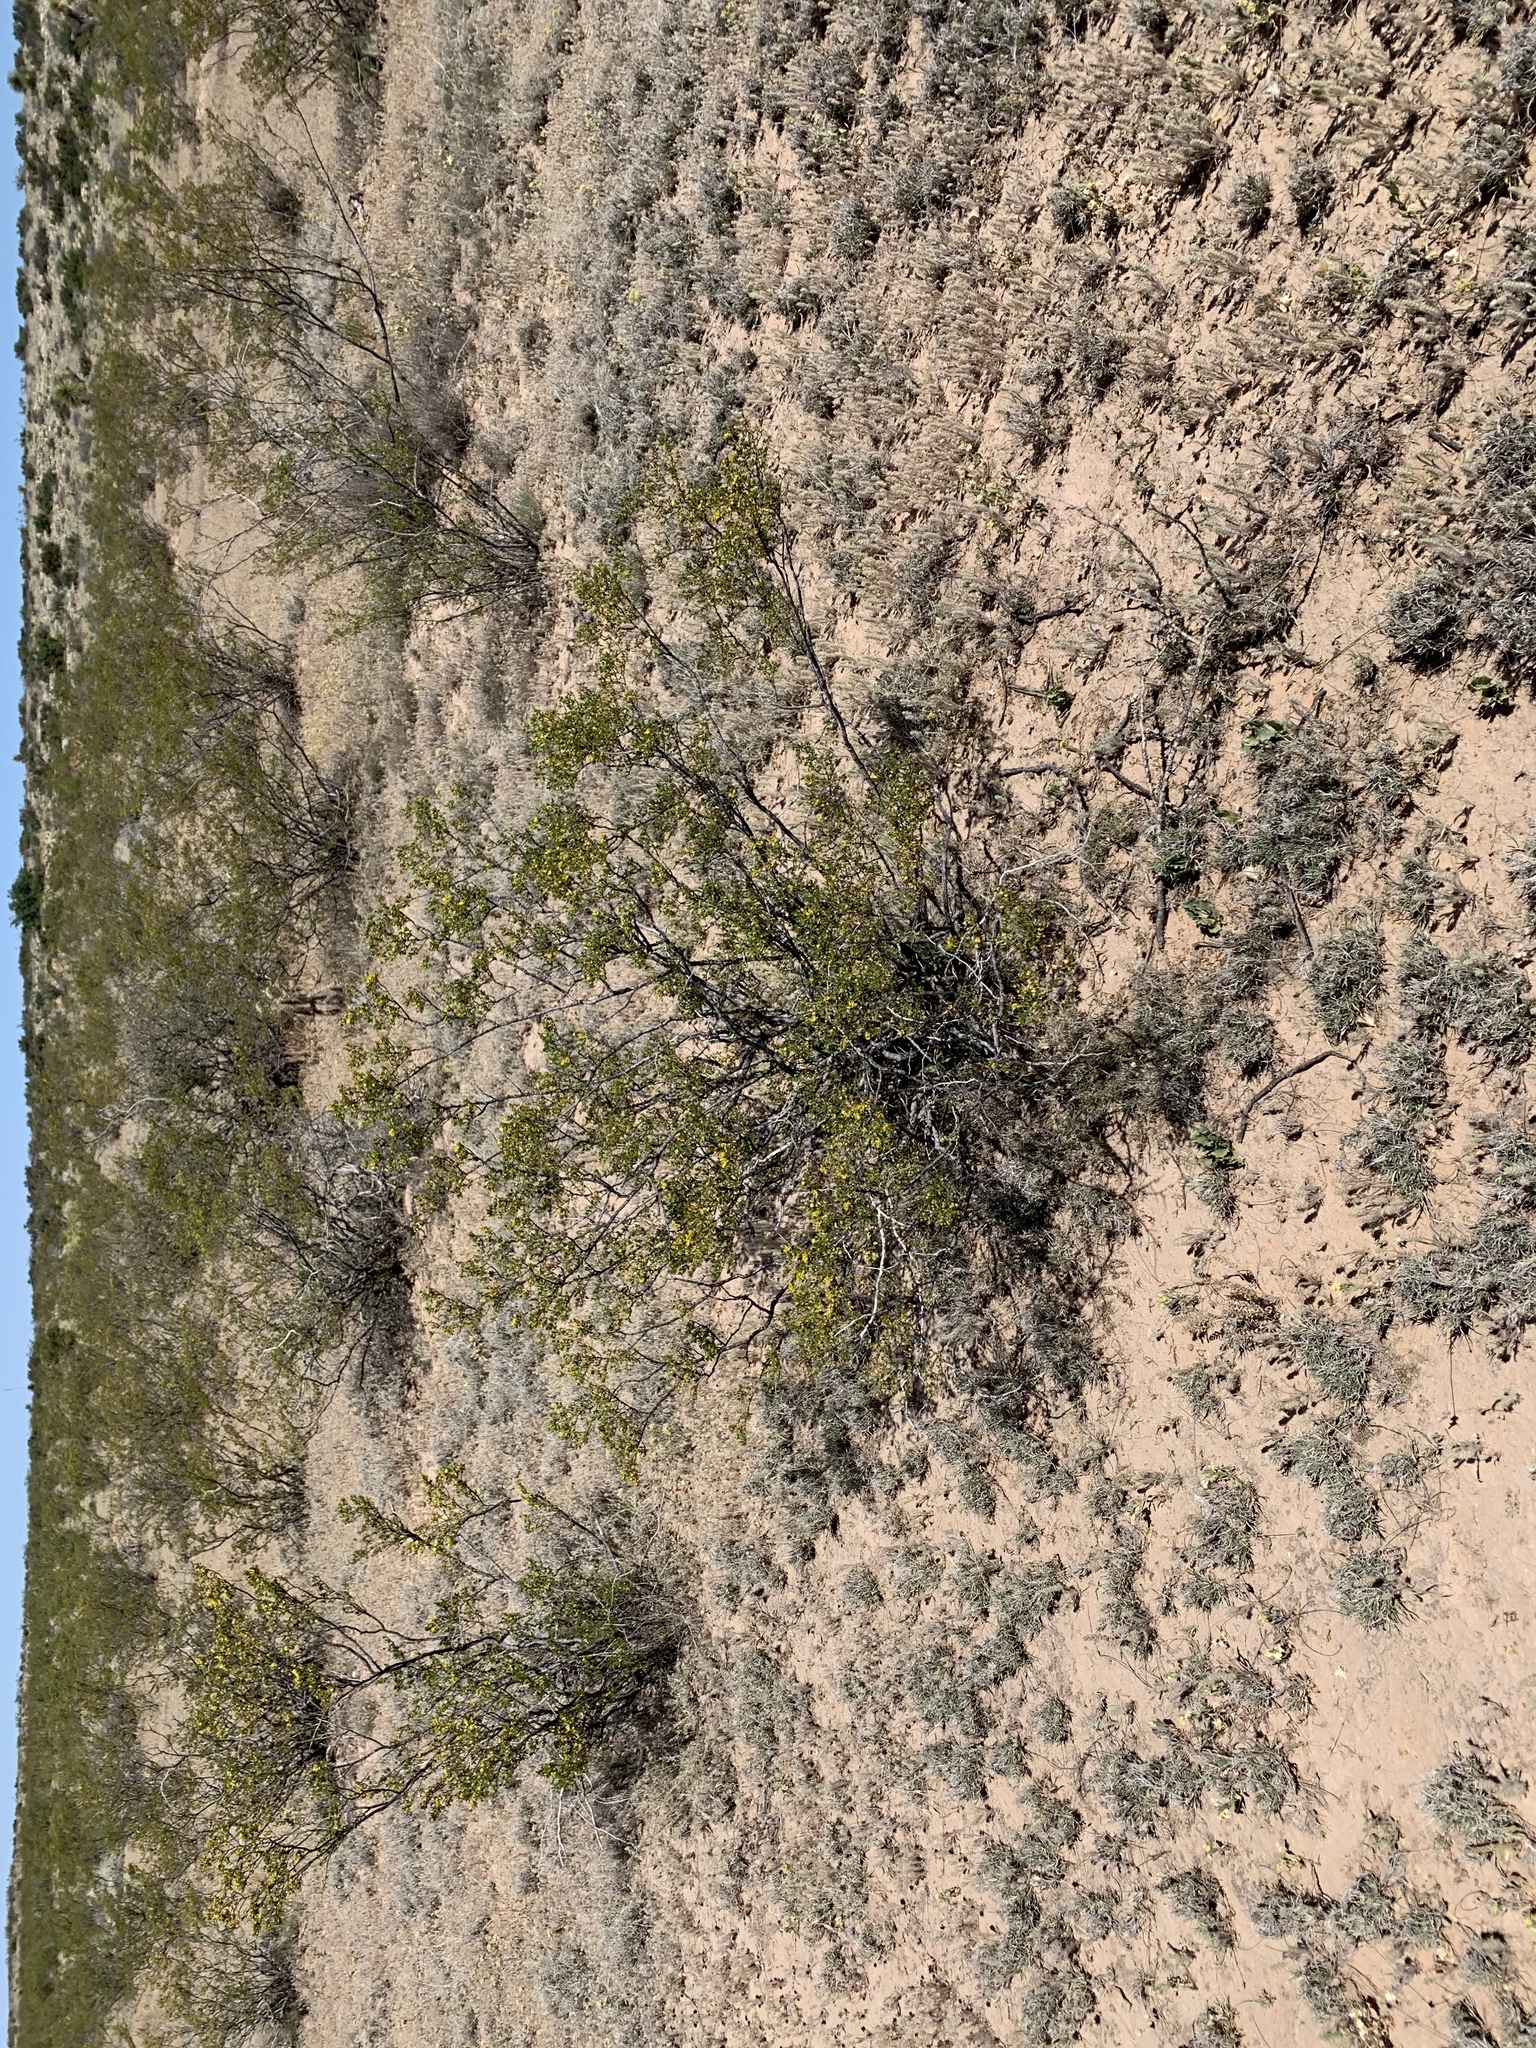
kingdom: Plantae
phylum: Tracheophyta
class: Magnoliopsida
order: Zygophyllales
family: Zygophyllaceae
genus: Larrea
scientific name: Larrea tridentata
